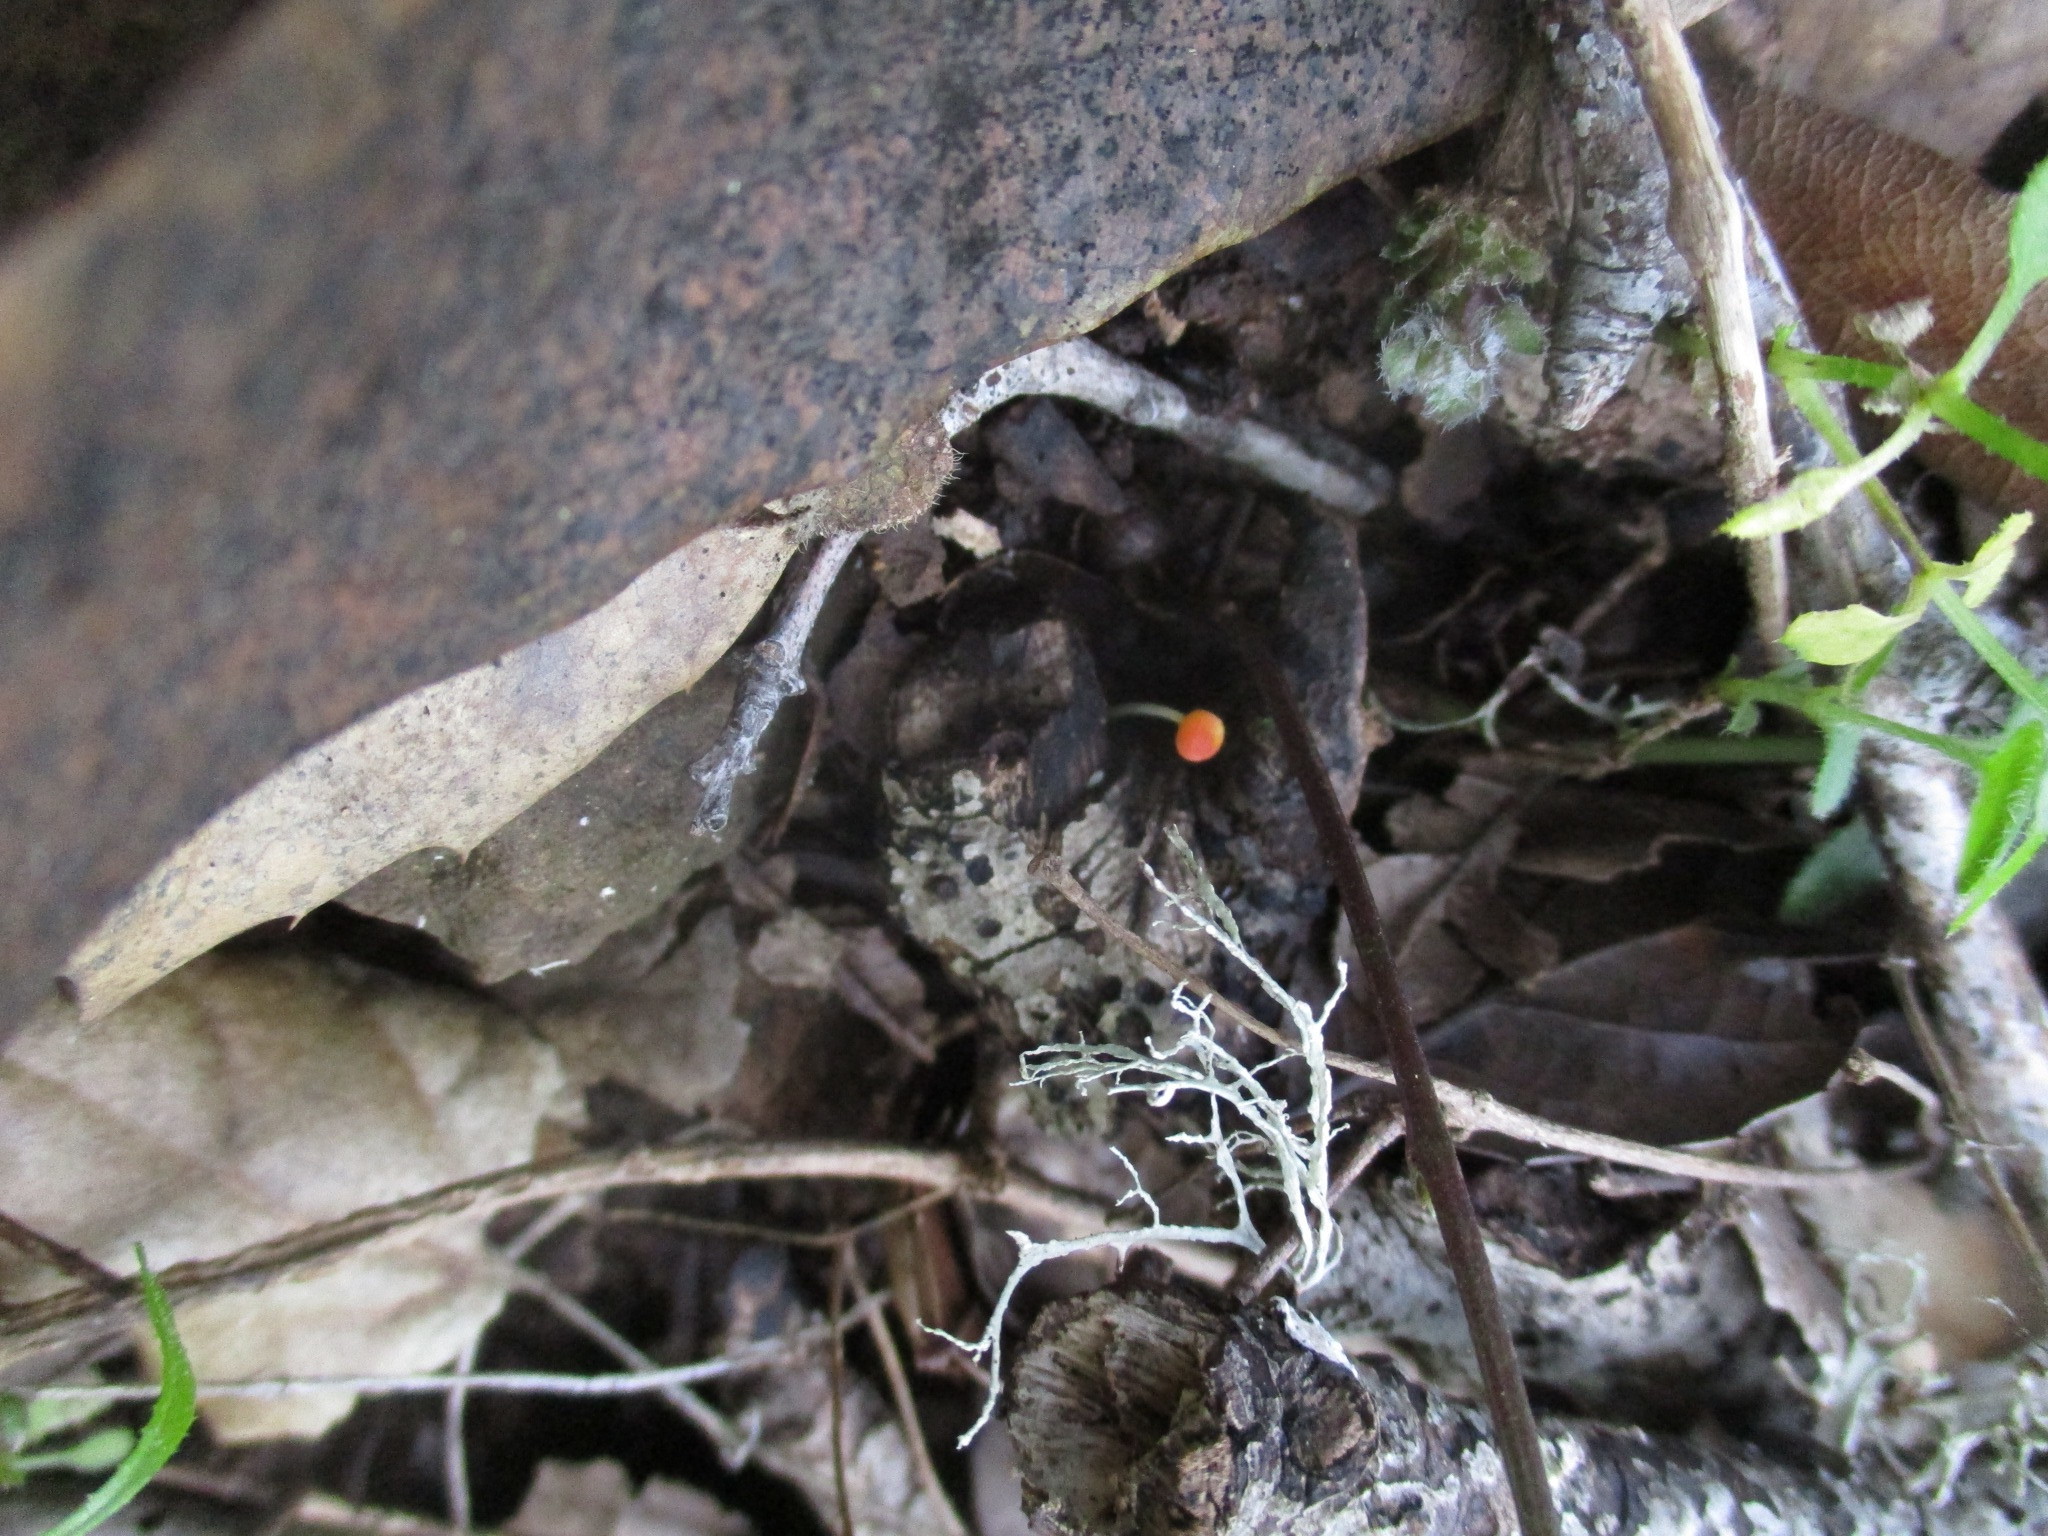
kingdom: Fungi
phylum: Basidiomycota
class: Agaricomycetes
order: Agaricales
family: Mycenaceae
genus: Mycena
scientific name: Mycena acicula
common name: Orange bonnet
